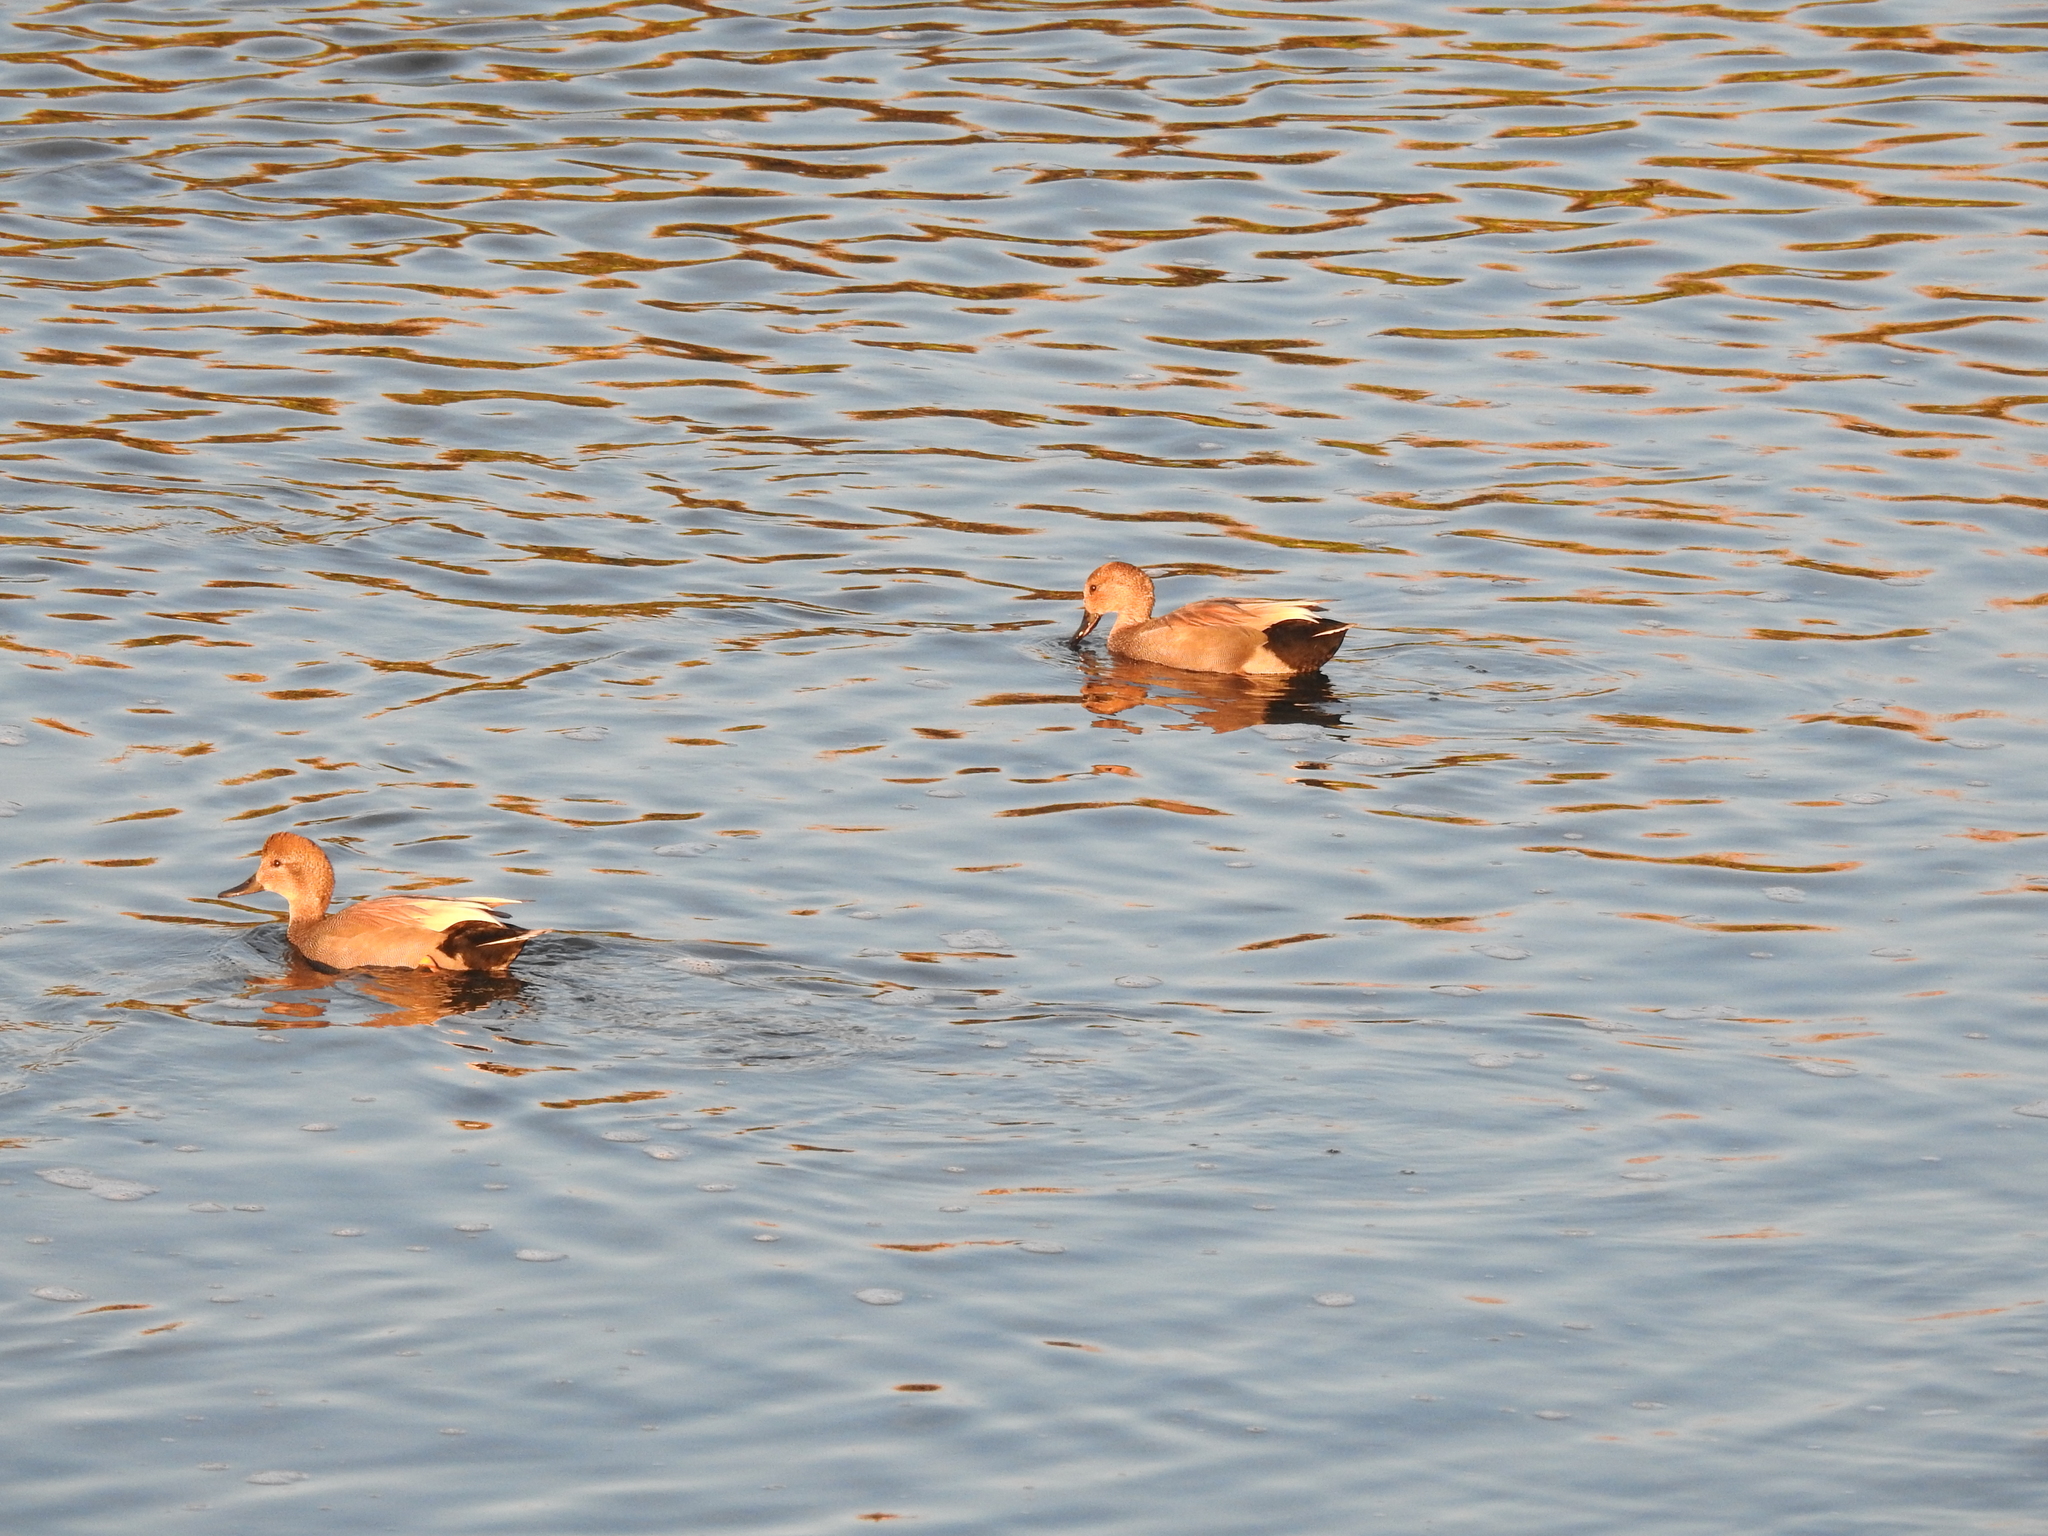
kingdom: Animalia
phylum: Chordata
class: Aves
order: Anseriformes
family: Anatidae
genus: Mareca
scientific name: Mareca strepera
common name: Gadwall
